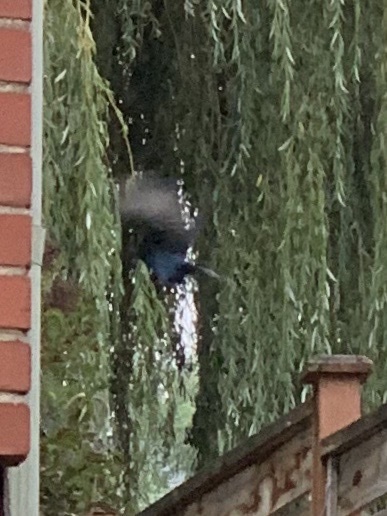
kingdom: Animalia
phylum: Chordata
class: Aves
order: Passeriformes
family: Corvidae
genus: Cyanocitta
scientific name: Cyanocitta stelleri
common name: Steller's jay
